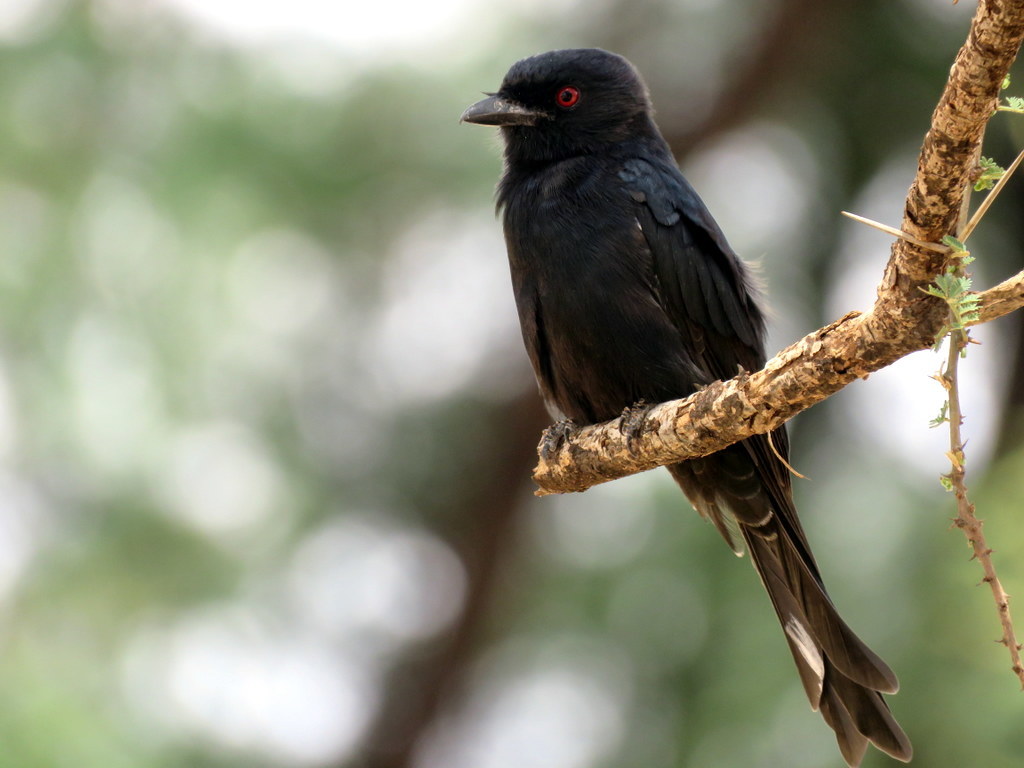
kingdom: Animalia
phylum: Chordata
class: Aves
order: Passeriformes
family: Dicruridae
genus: Dicrurus
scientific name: Dicrurus adsimilis
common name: Fork-tailed drongo
